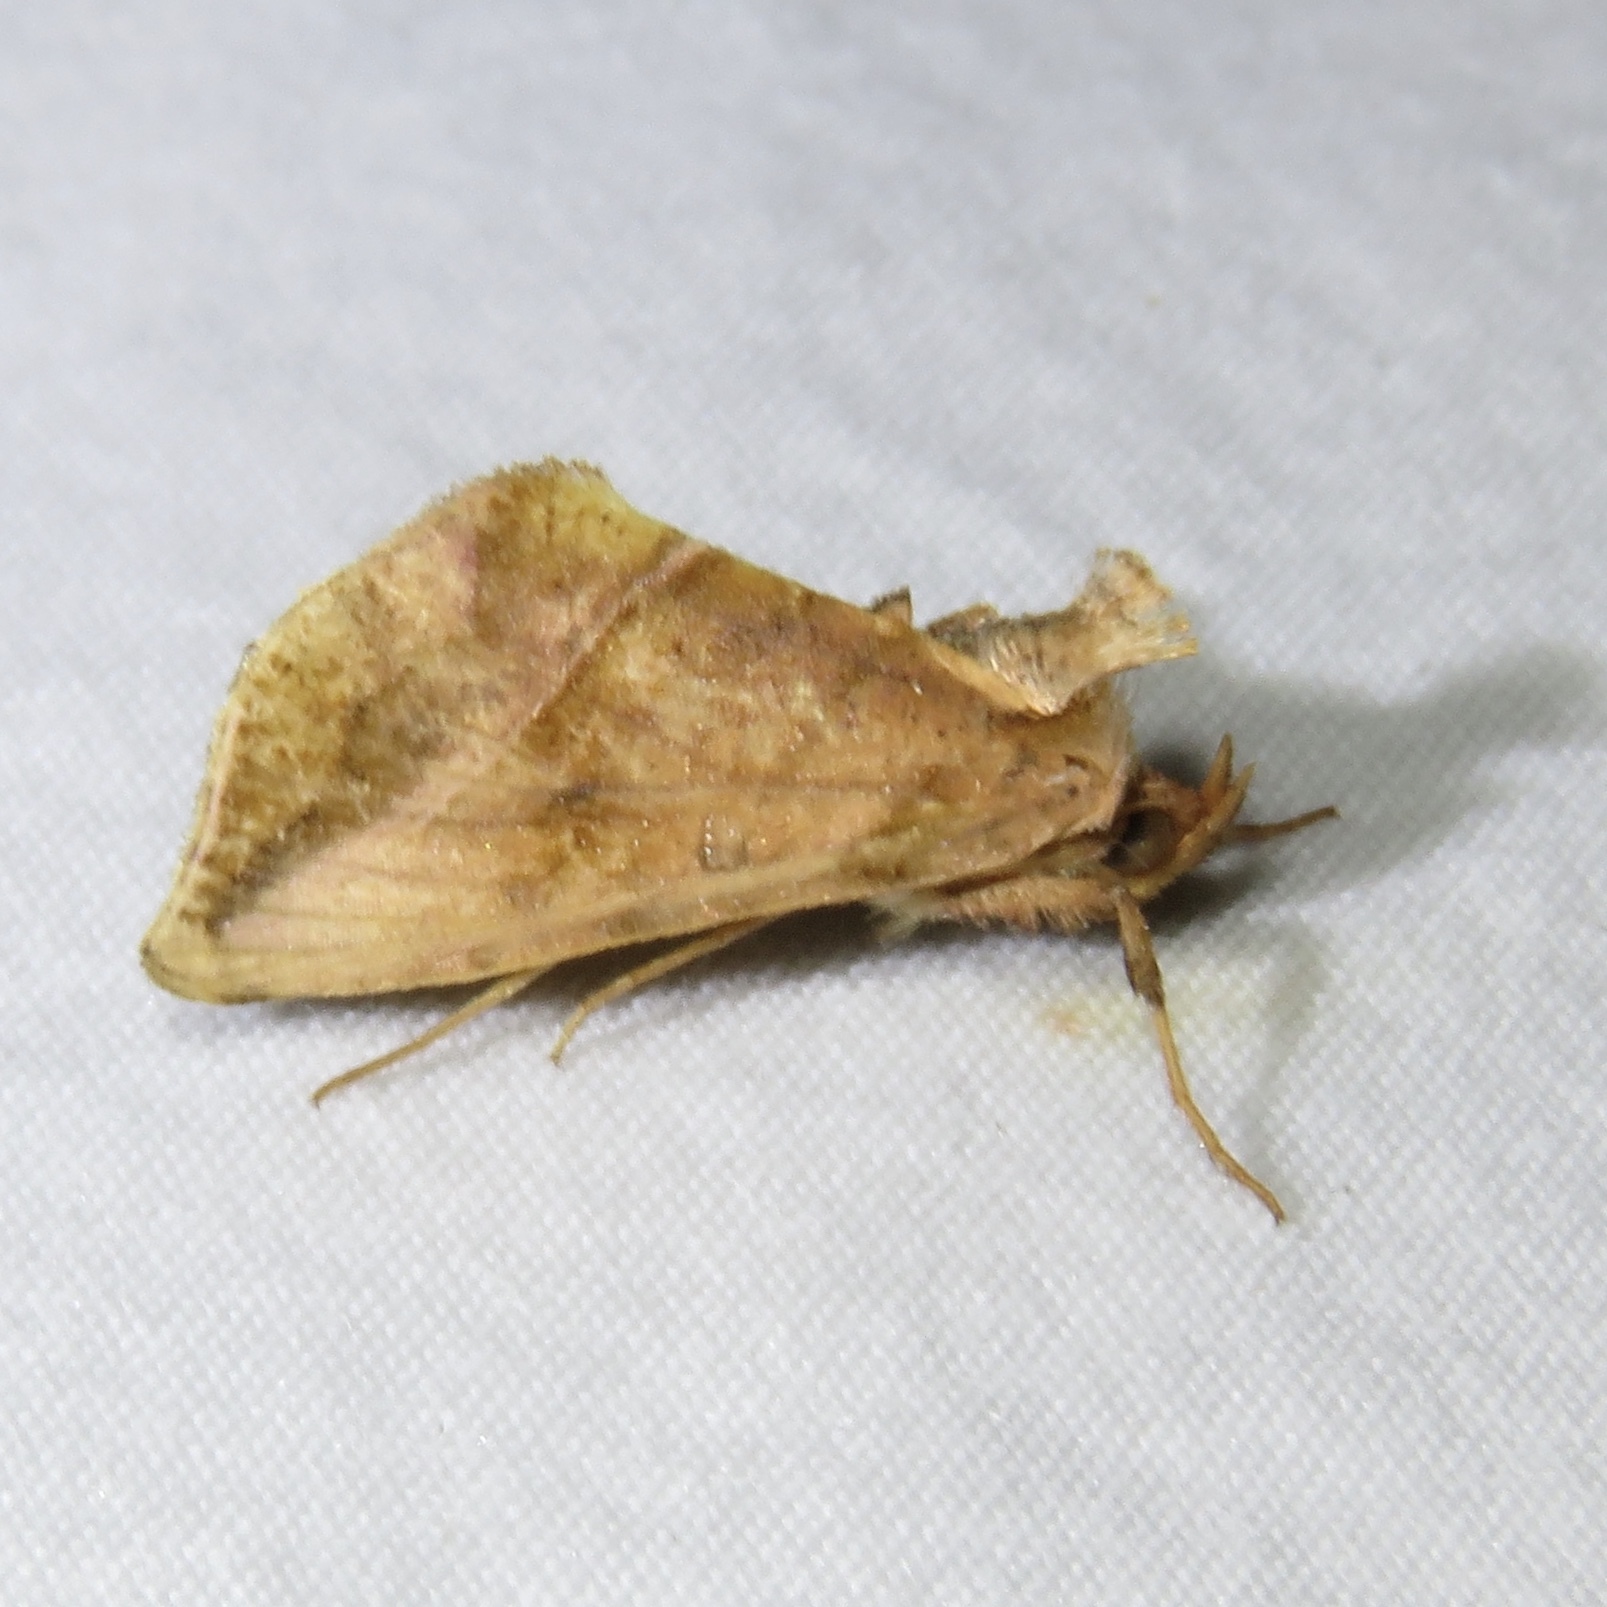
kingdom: Animalia
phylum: Arthropoda
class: Insecta
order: Lepidoptera
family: Noctuidae
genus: Pseudeva
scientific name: Pseudeva purpurigera
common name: Straight-lined looper moth
